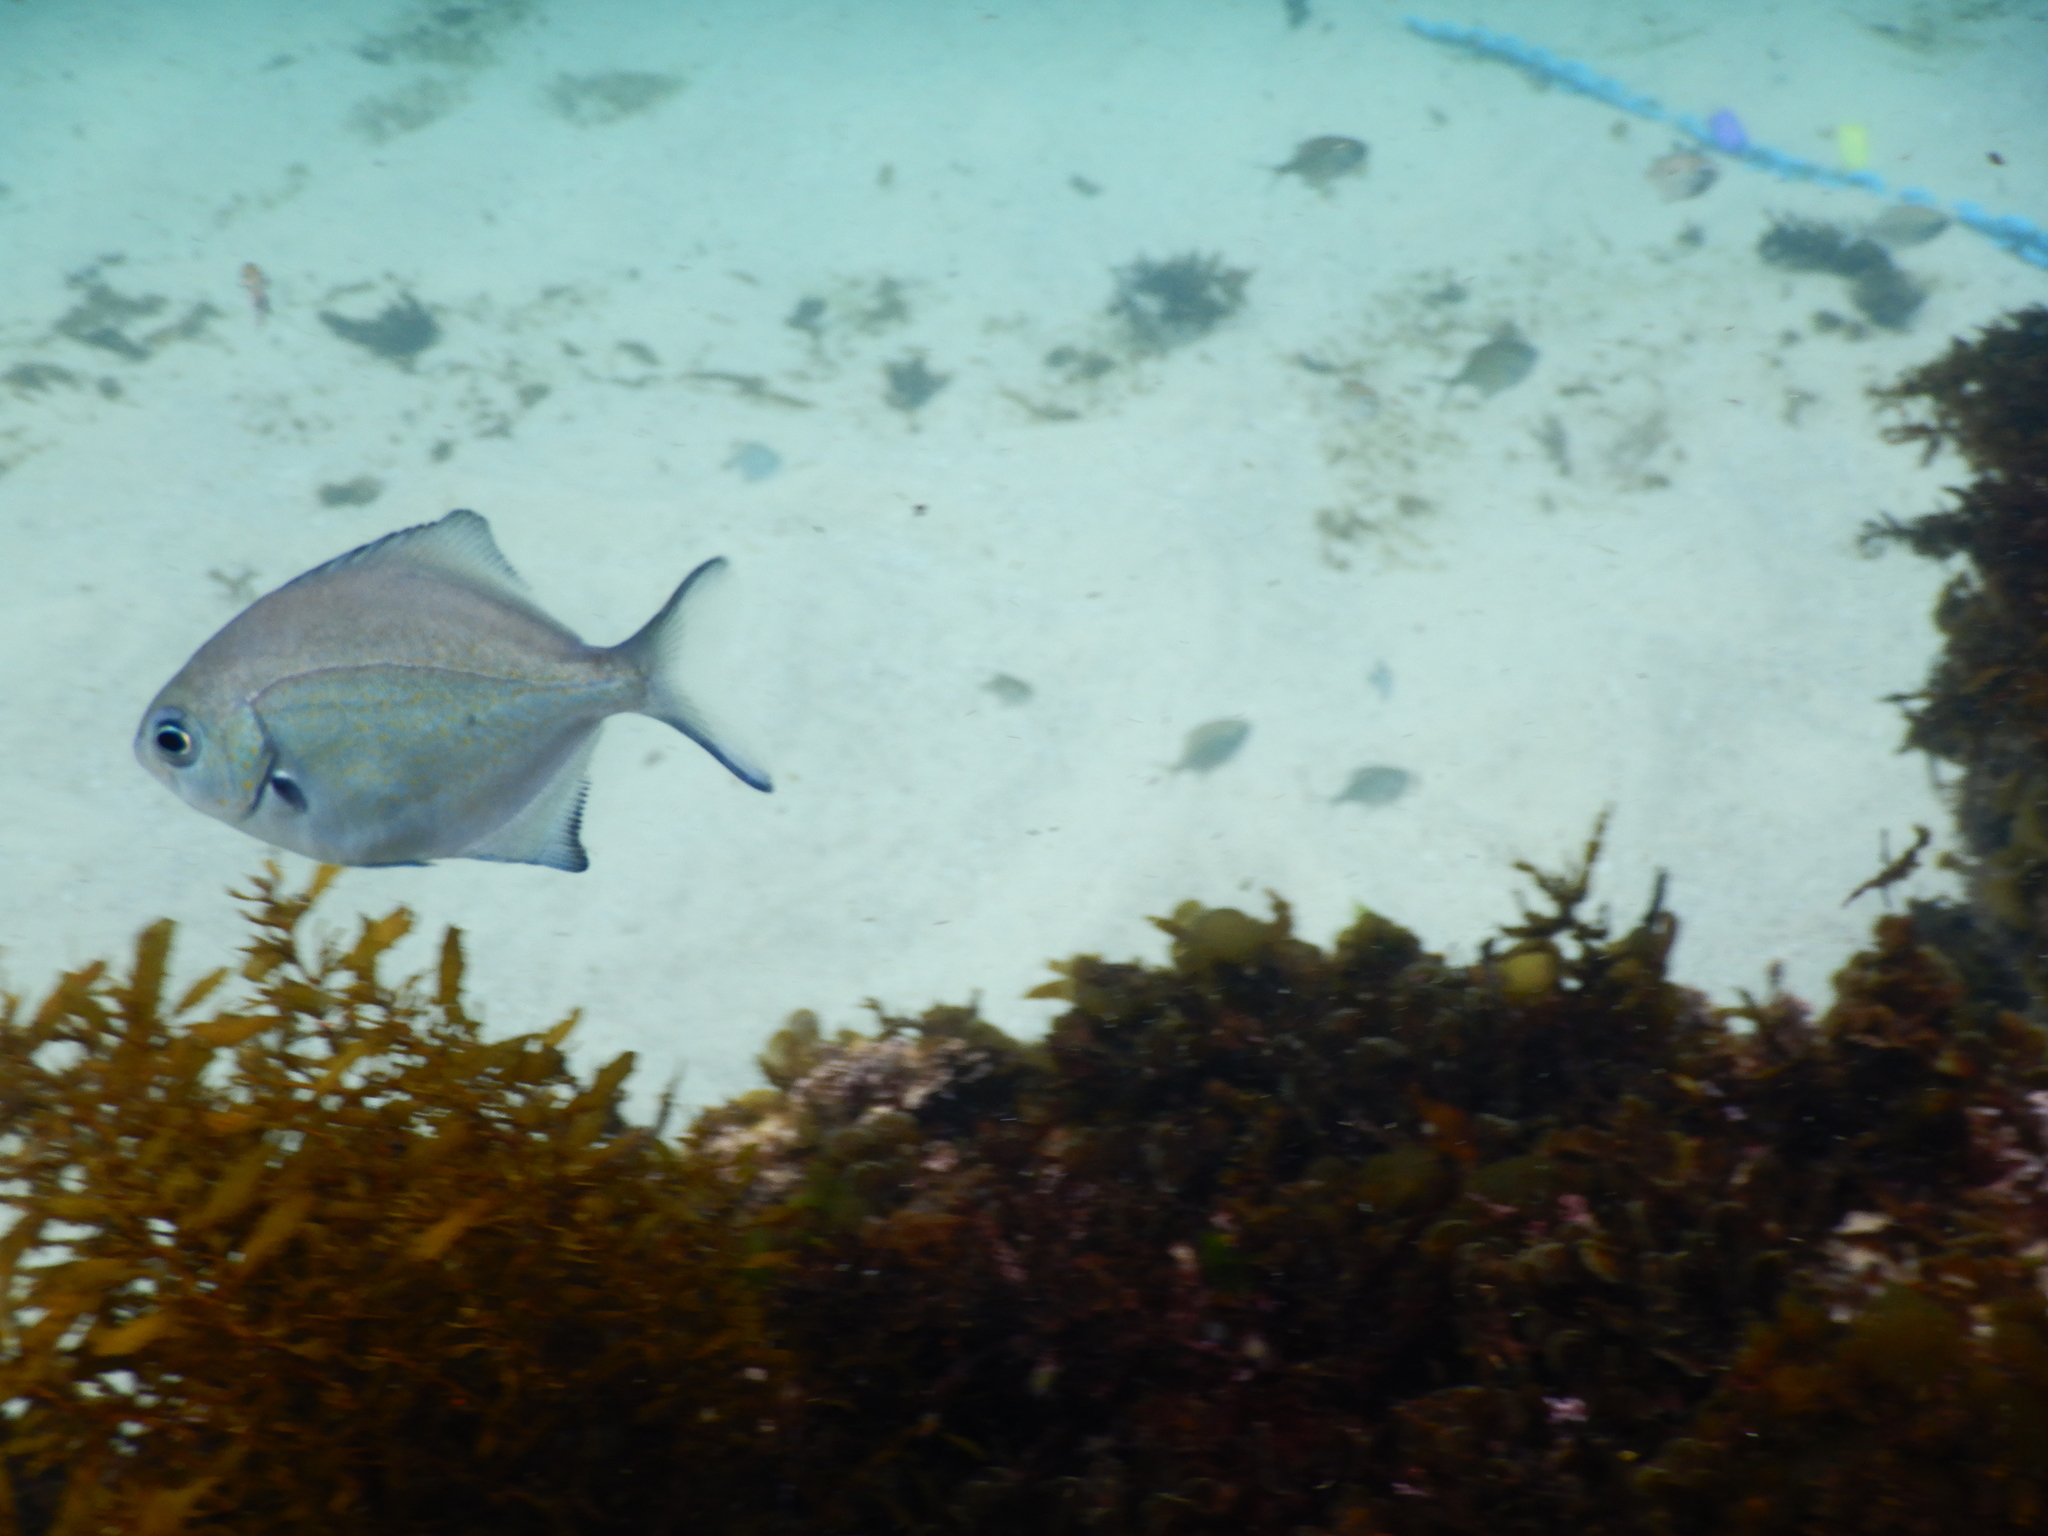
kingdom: Animalia
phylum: Chordata
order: Perciformes
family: Kyphosidae
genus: Scorpis
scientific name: Scorpis lineolata
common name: Sweep
